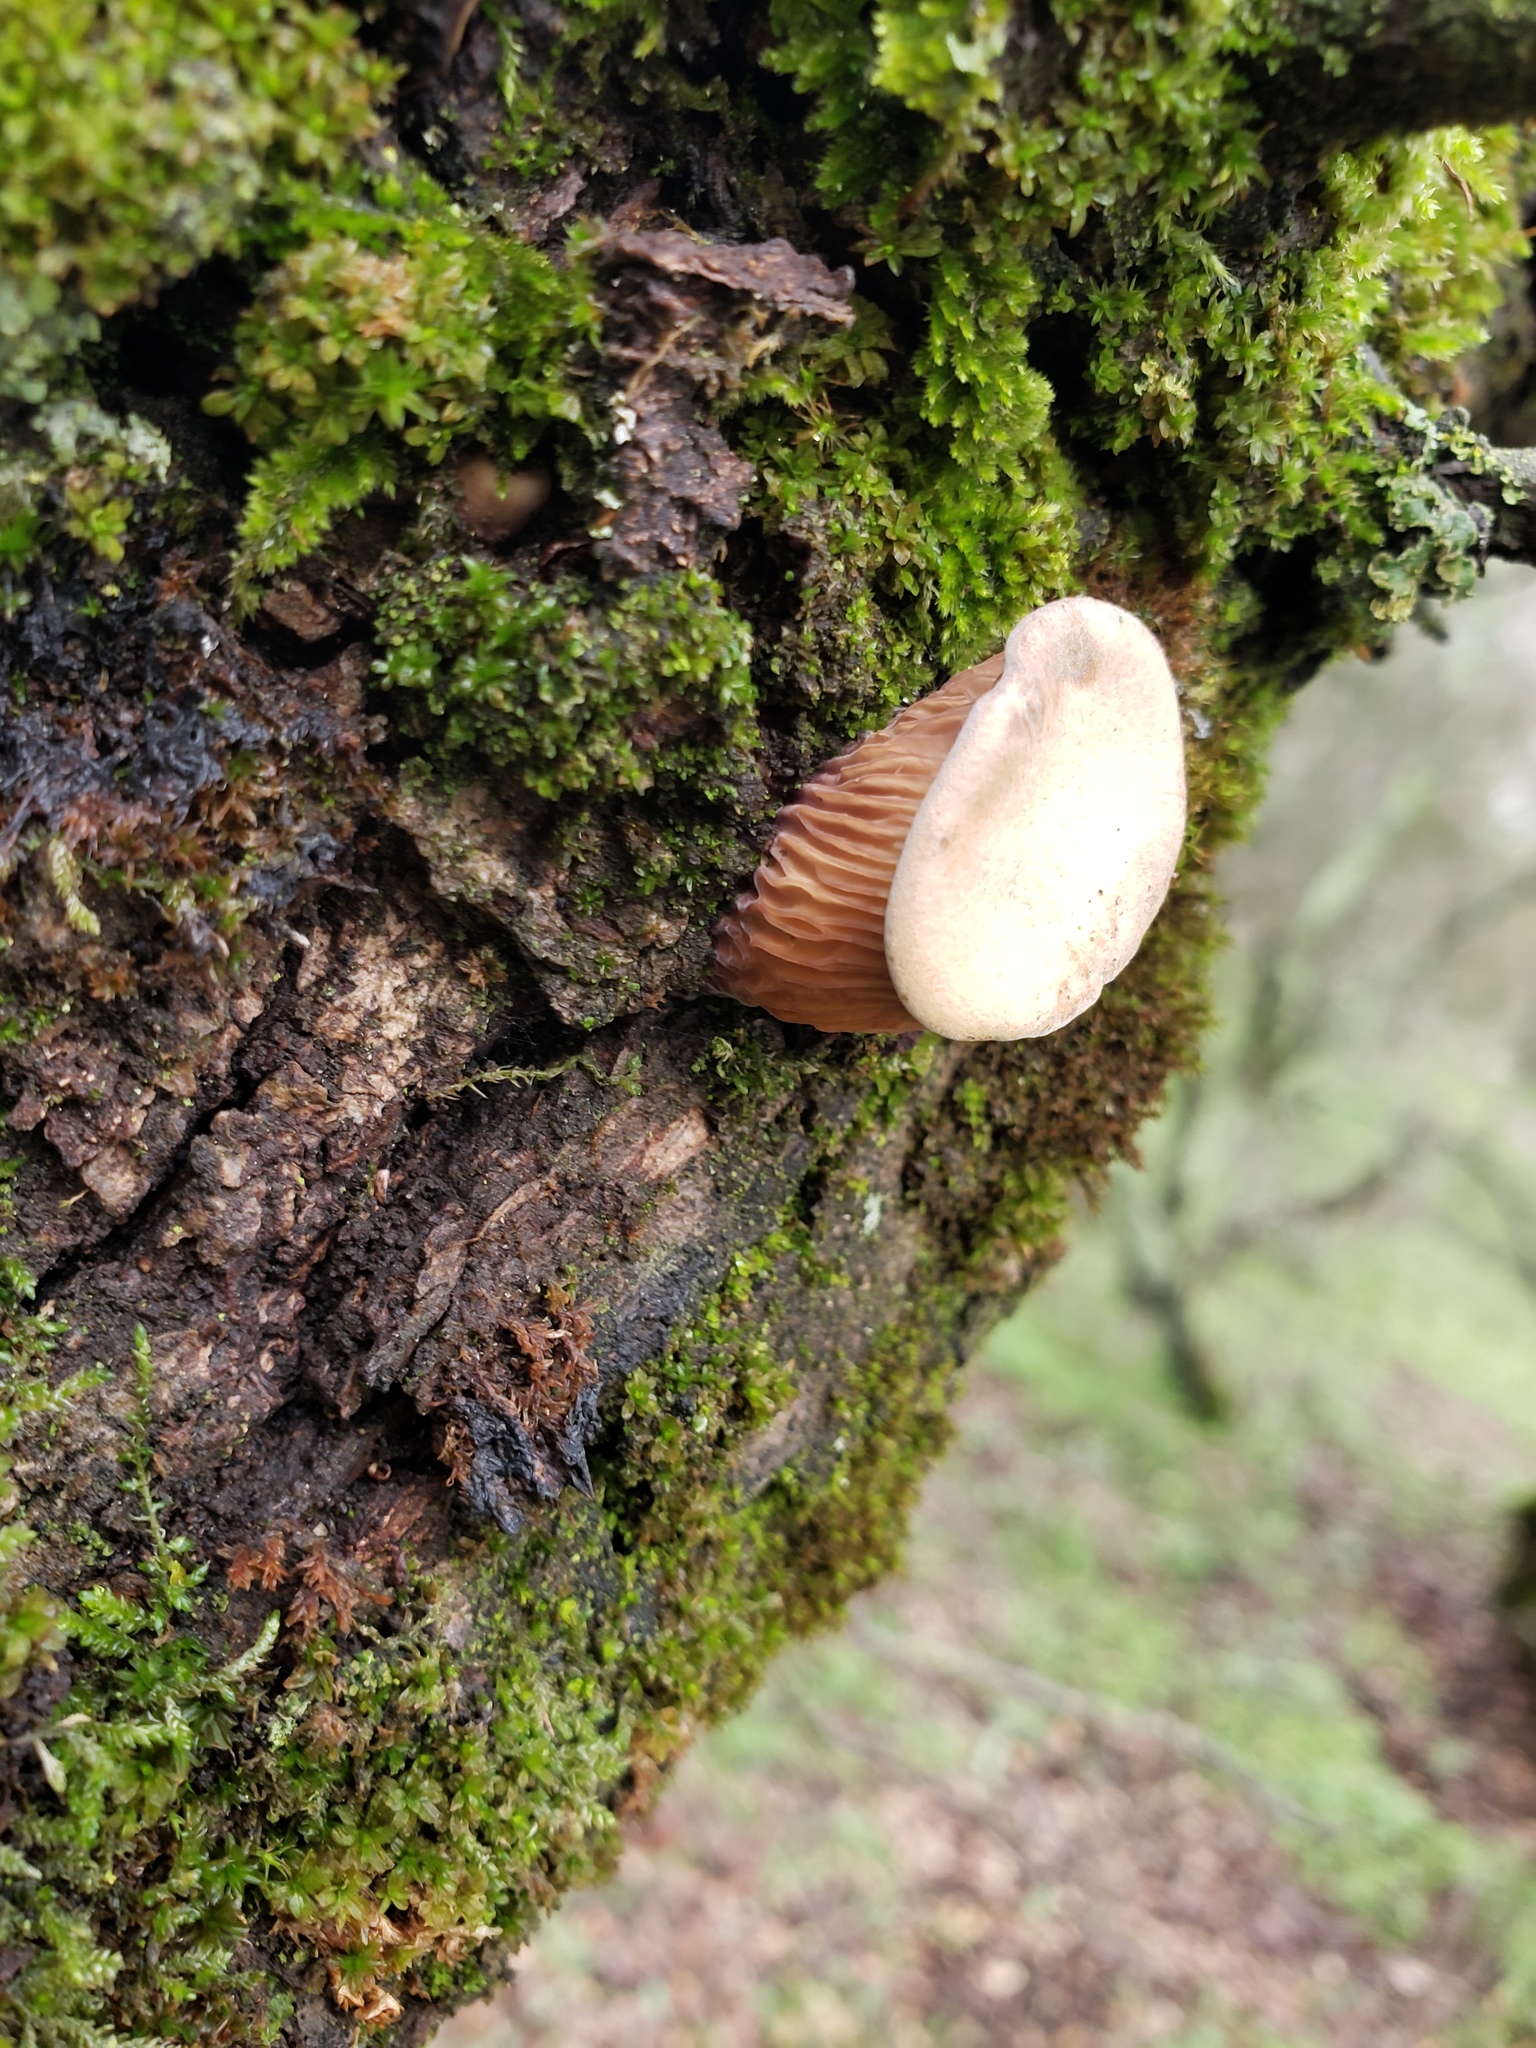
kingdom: Fungi
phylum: Basidiomycota
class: Agaricomycetes
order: Polyporales
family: Panaceae
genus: Panus
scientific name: Panus conchatus
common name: Lilac oysterling
